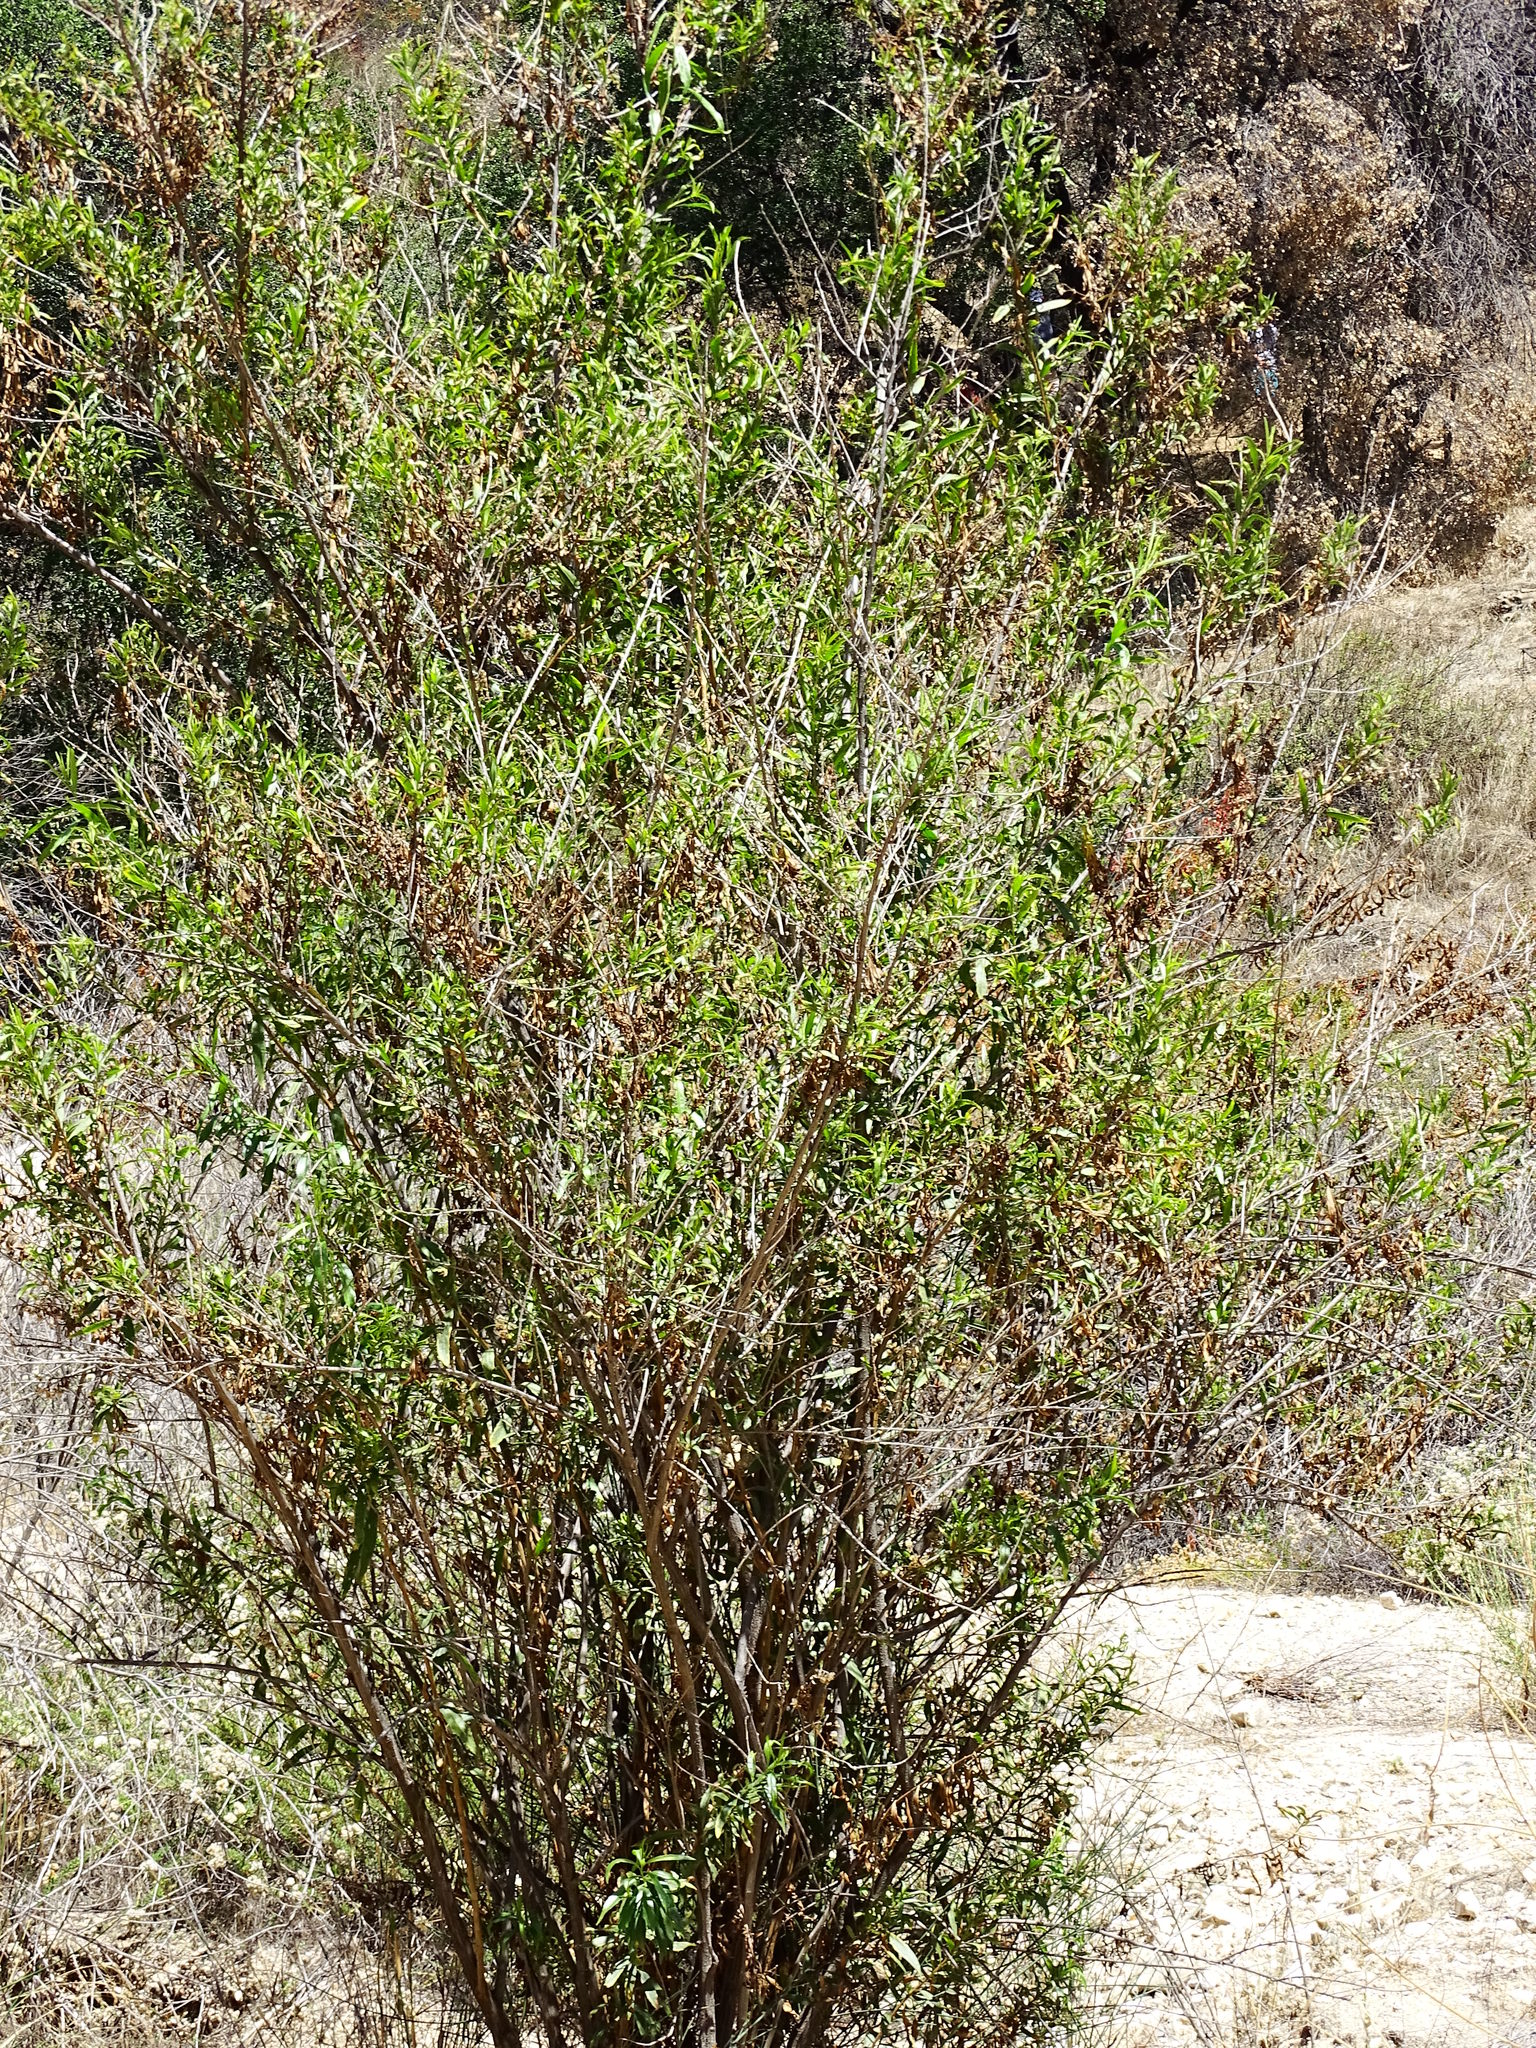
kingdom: Plantae
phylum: Tracheophyta
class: Magnoliopsida
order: Asterales
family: Asteraceae
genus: Baccharis
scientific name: Baccharis salicifolia
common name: Sticky baccharis
